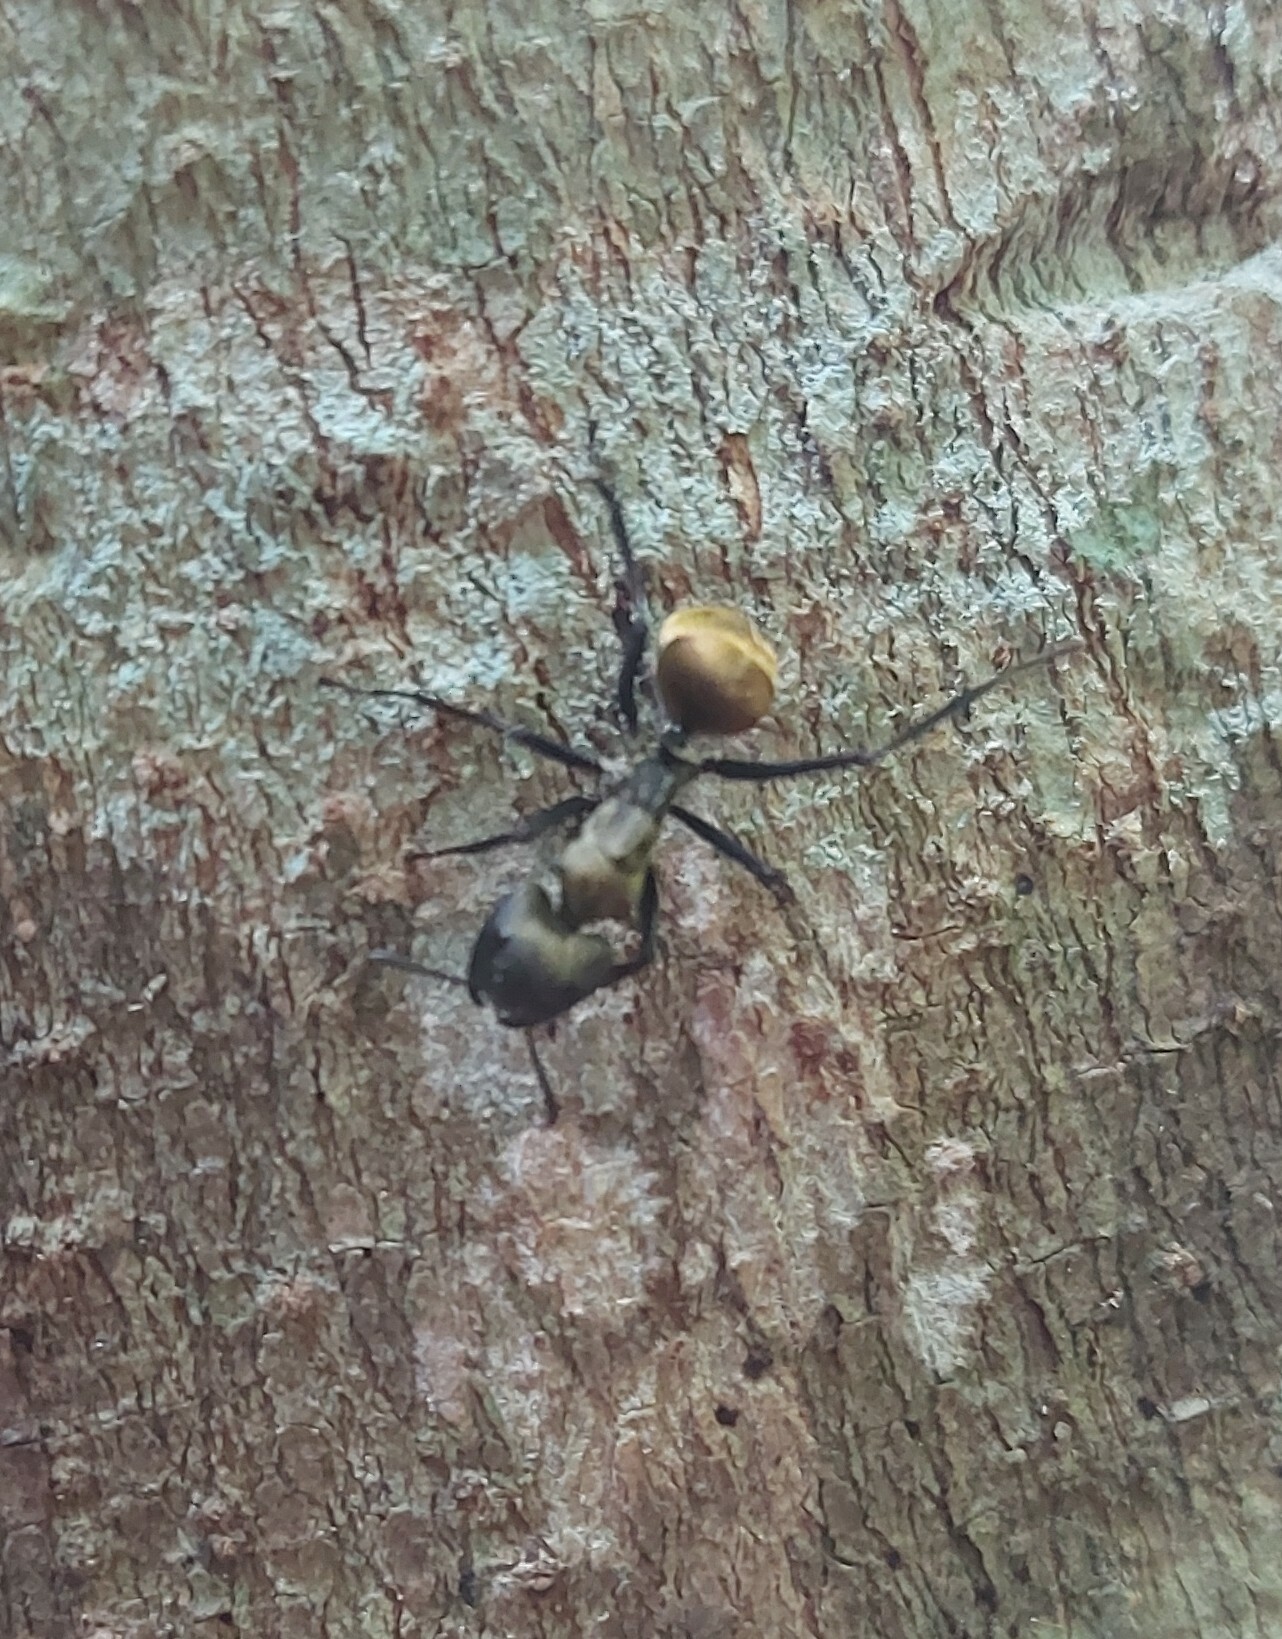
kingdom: Animalia
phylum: Arthropoda
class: Insecta
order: Hymenoptera
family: Formicidae
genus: Camponotus
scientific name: Camponotus sericeiventris
